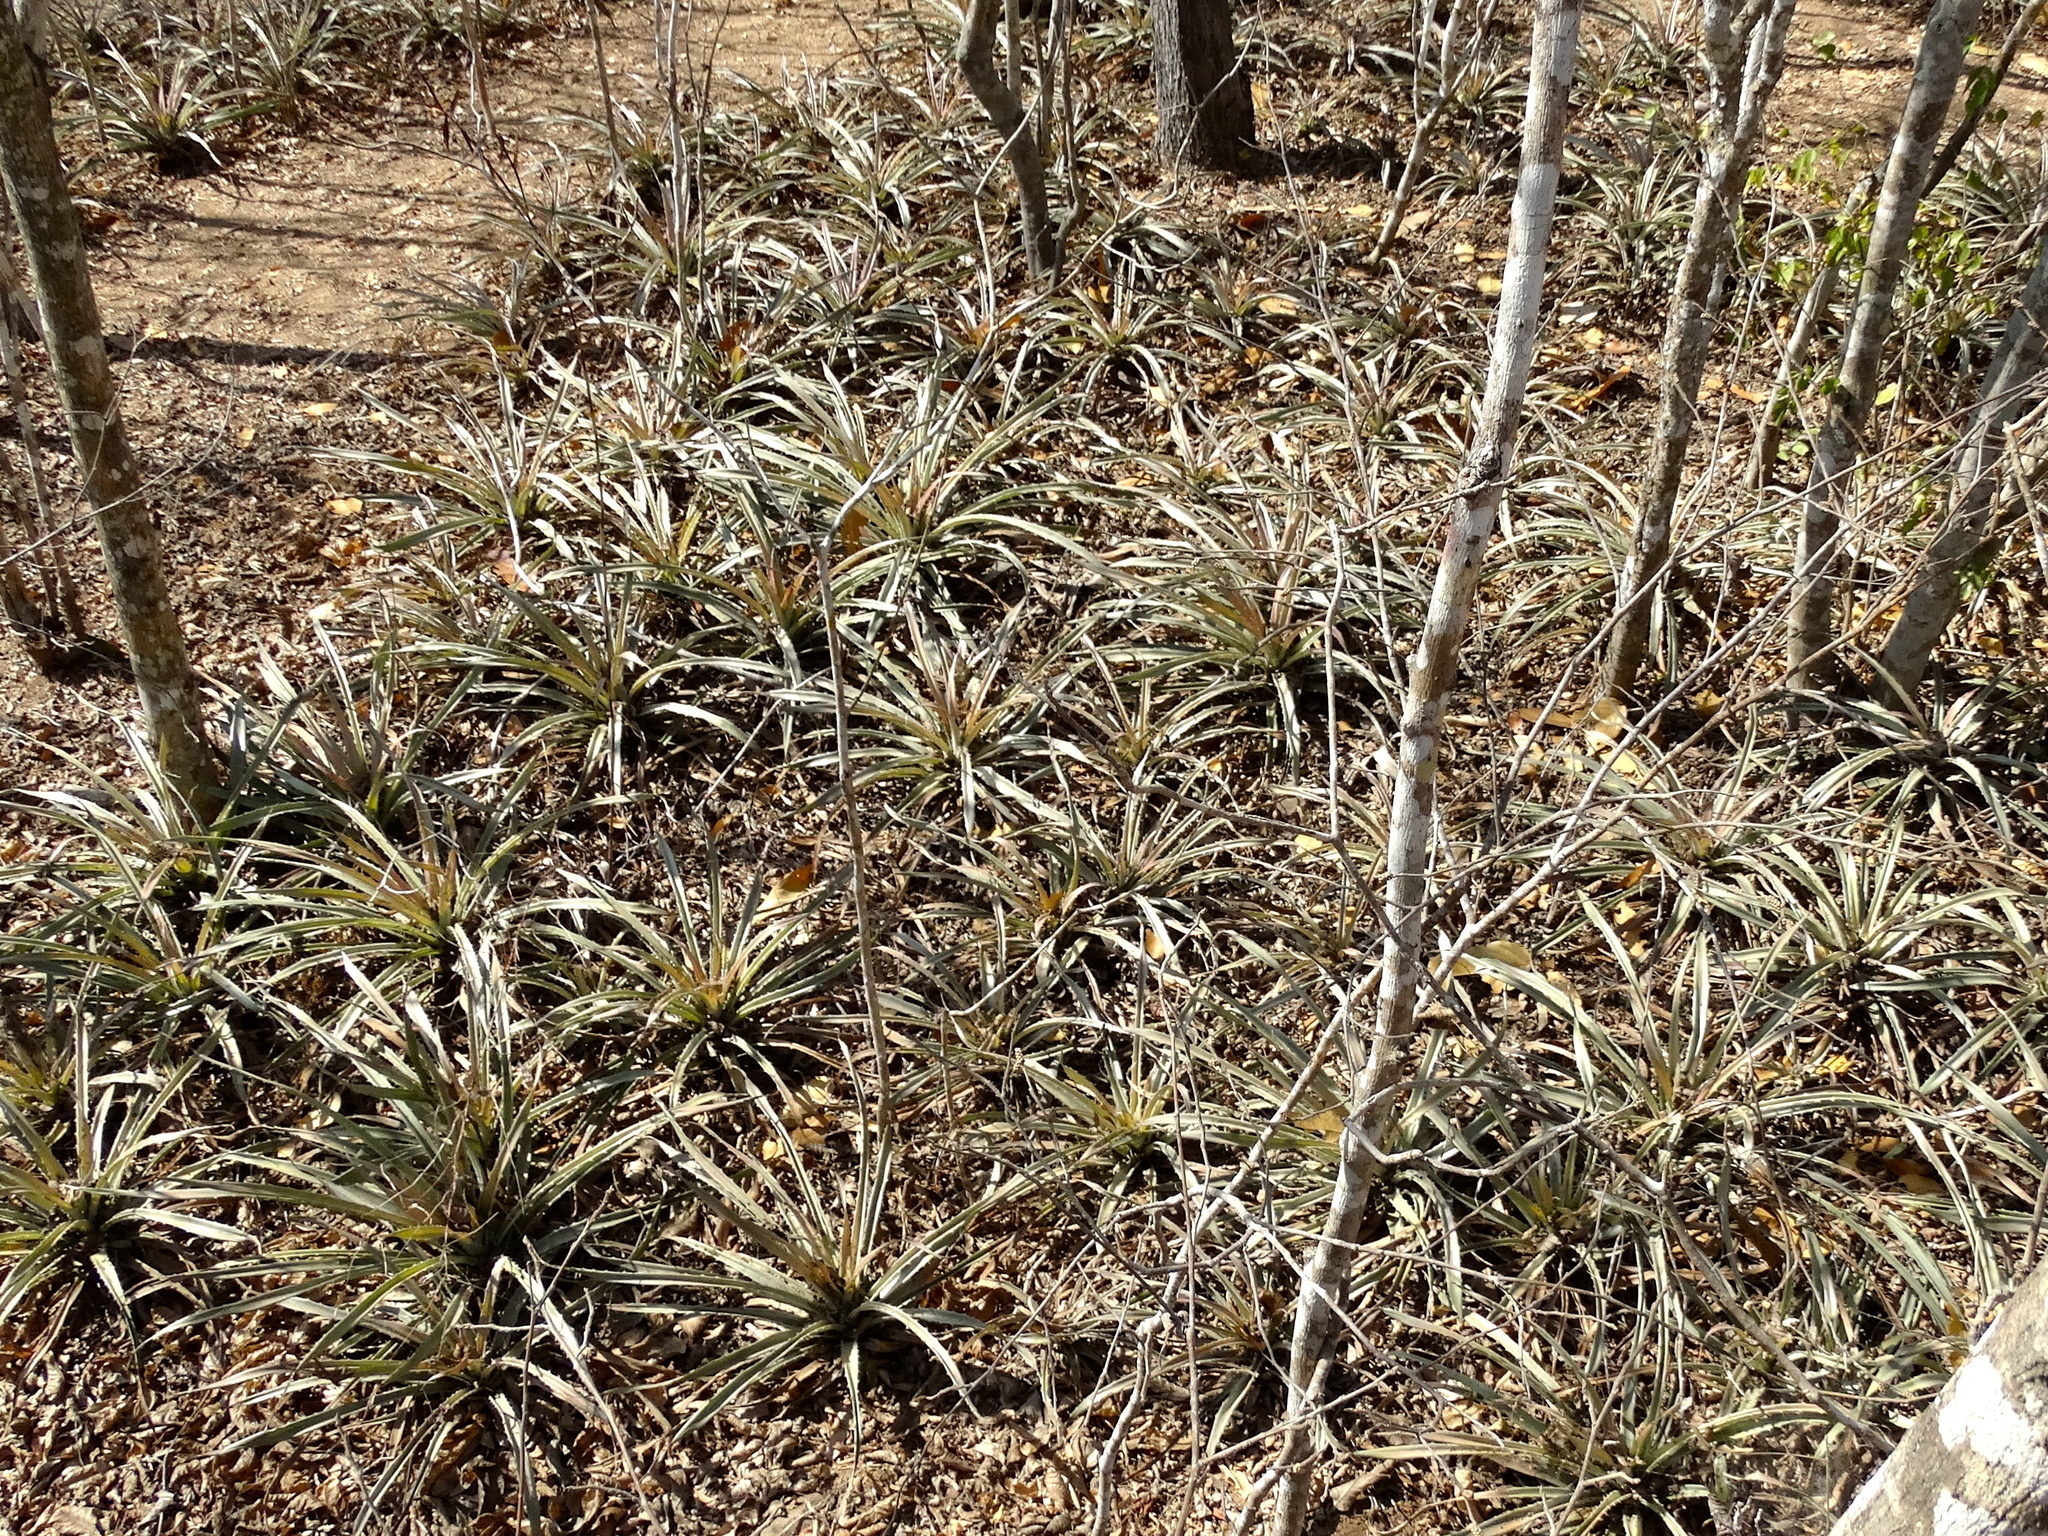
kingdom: Plantae
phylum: Tracheophyta
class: Liliopsida
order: Poales
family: Bromeliaceae
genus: Bromelia
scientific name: Bromelia pinguin
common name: Pinguin
